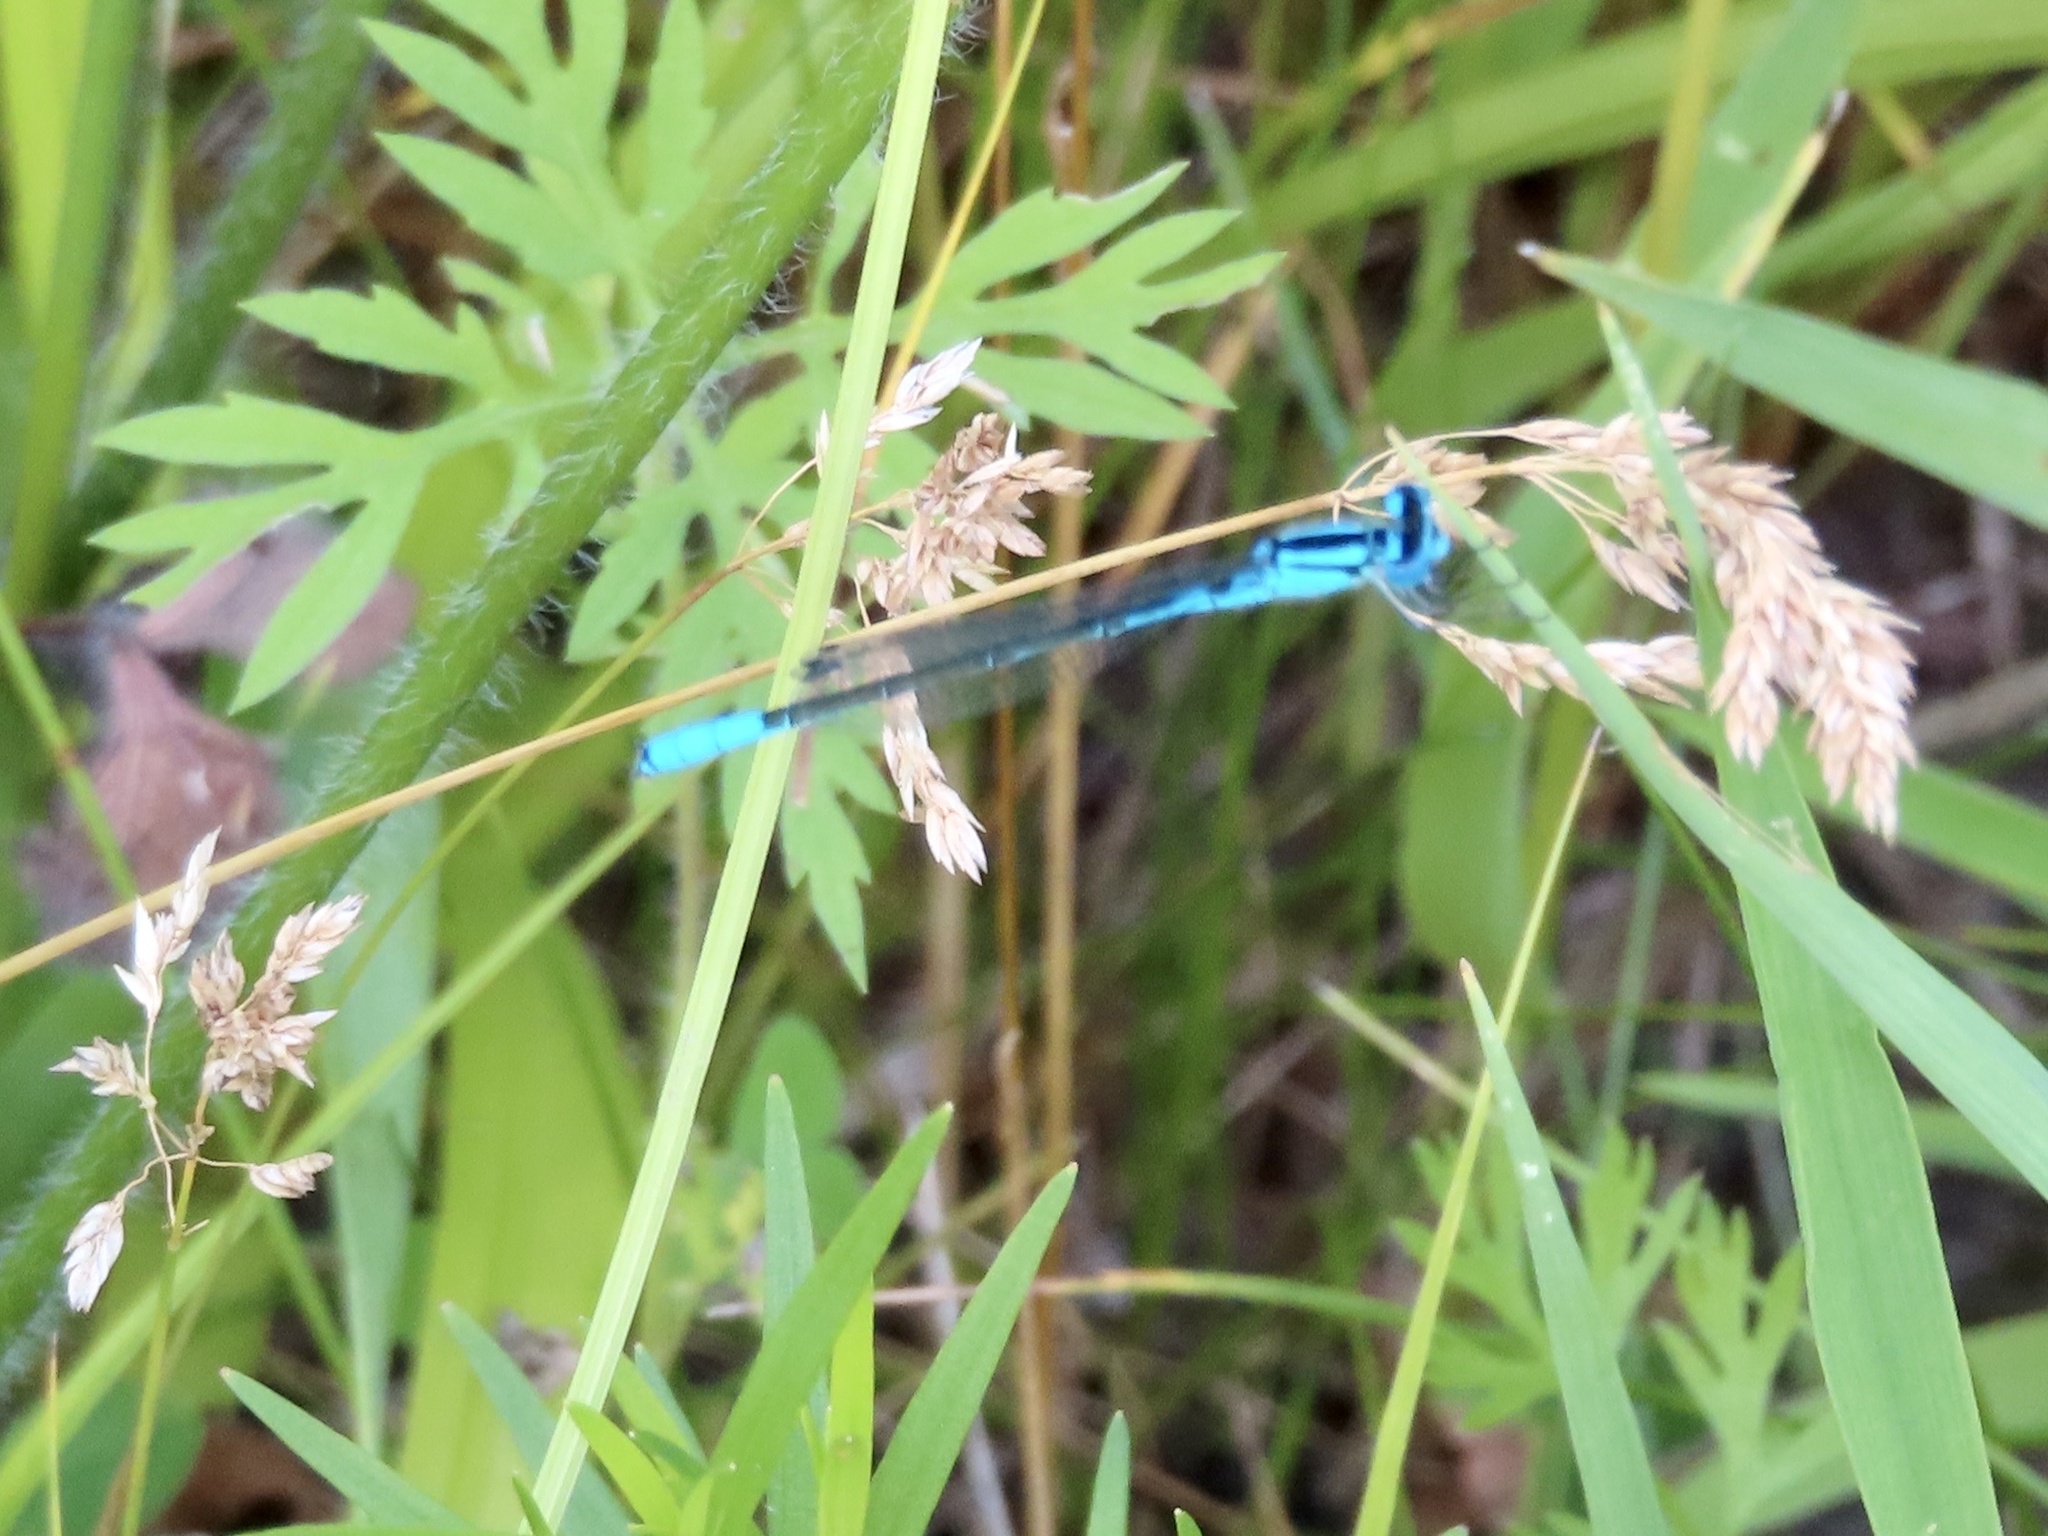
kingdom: Animalia
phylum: Arthropoda
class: Insecta
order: Odonata
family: Coenagrionidae
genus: Enallagma
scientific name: Enallagma aspersum
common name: Azure bluet
